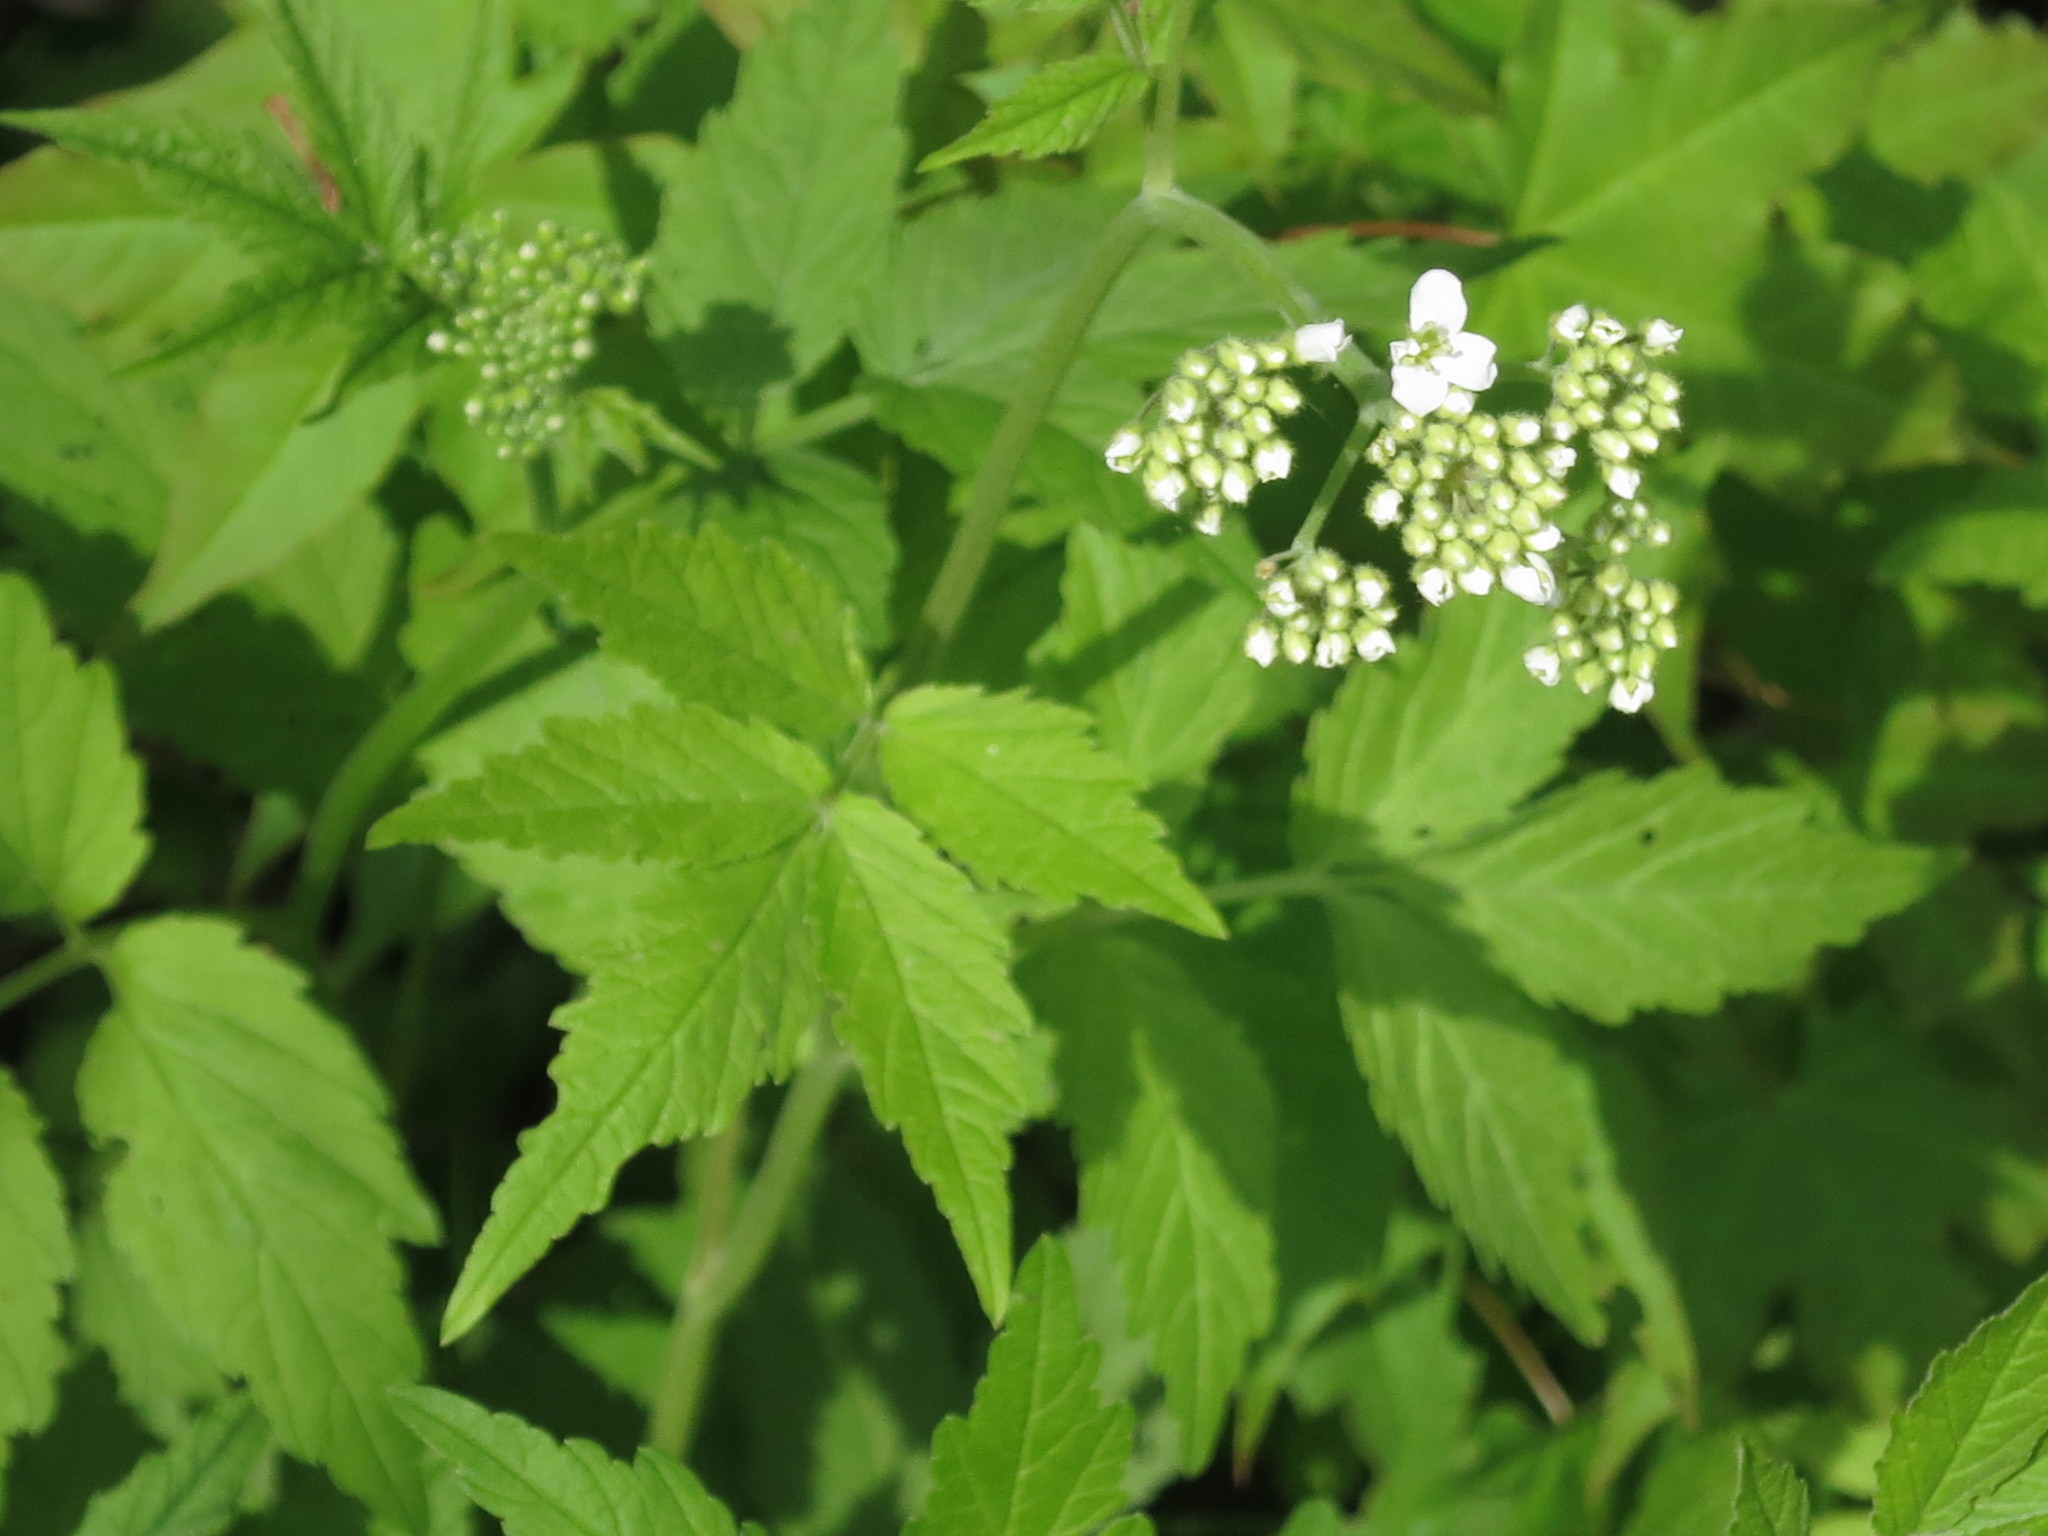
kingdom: Plantae
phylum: Tracheophyta
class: Magnoliopsida
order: Brassicales
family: Brassicaceae
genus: Cardamine
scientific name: Cardamine leucantha
